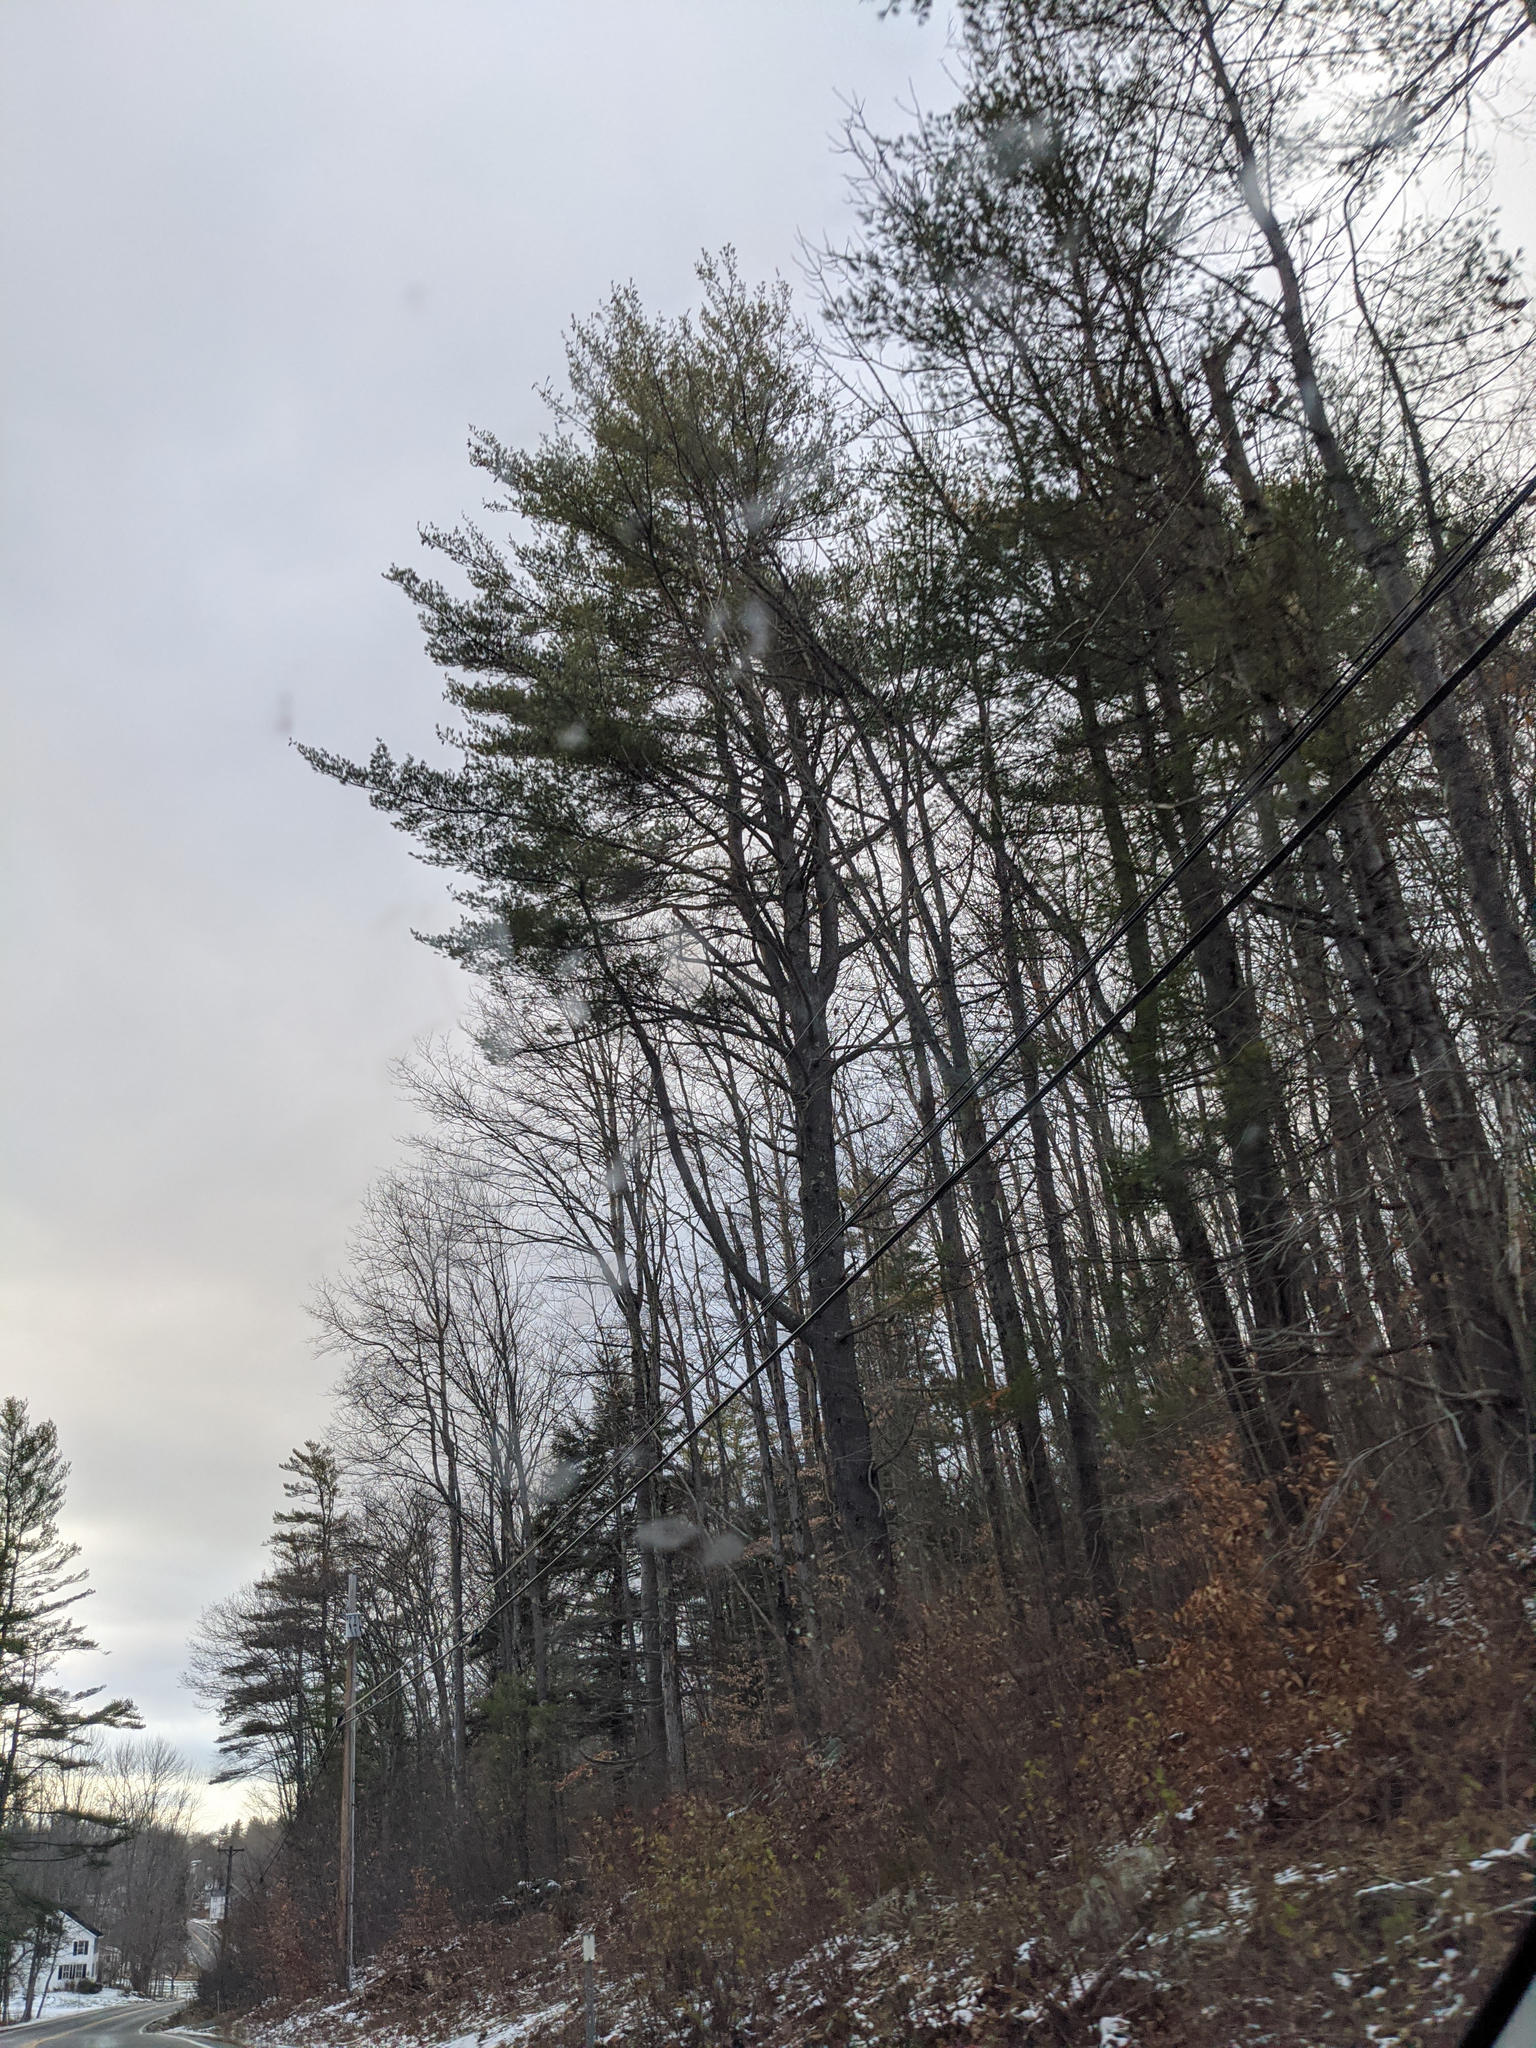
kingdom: Plantae
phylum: Tracheophyta
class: Pinopsida
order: Pinales
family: Pinaceae
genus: Pinus
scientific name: Pinus strobus
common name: Weymouth pine
